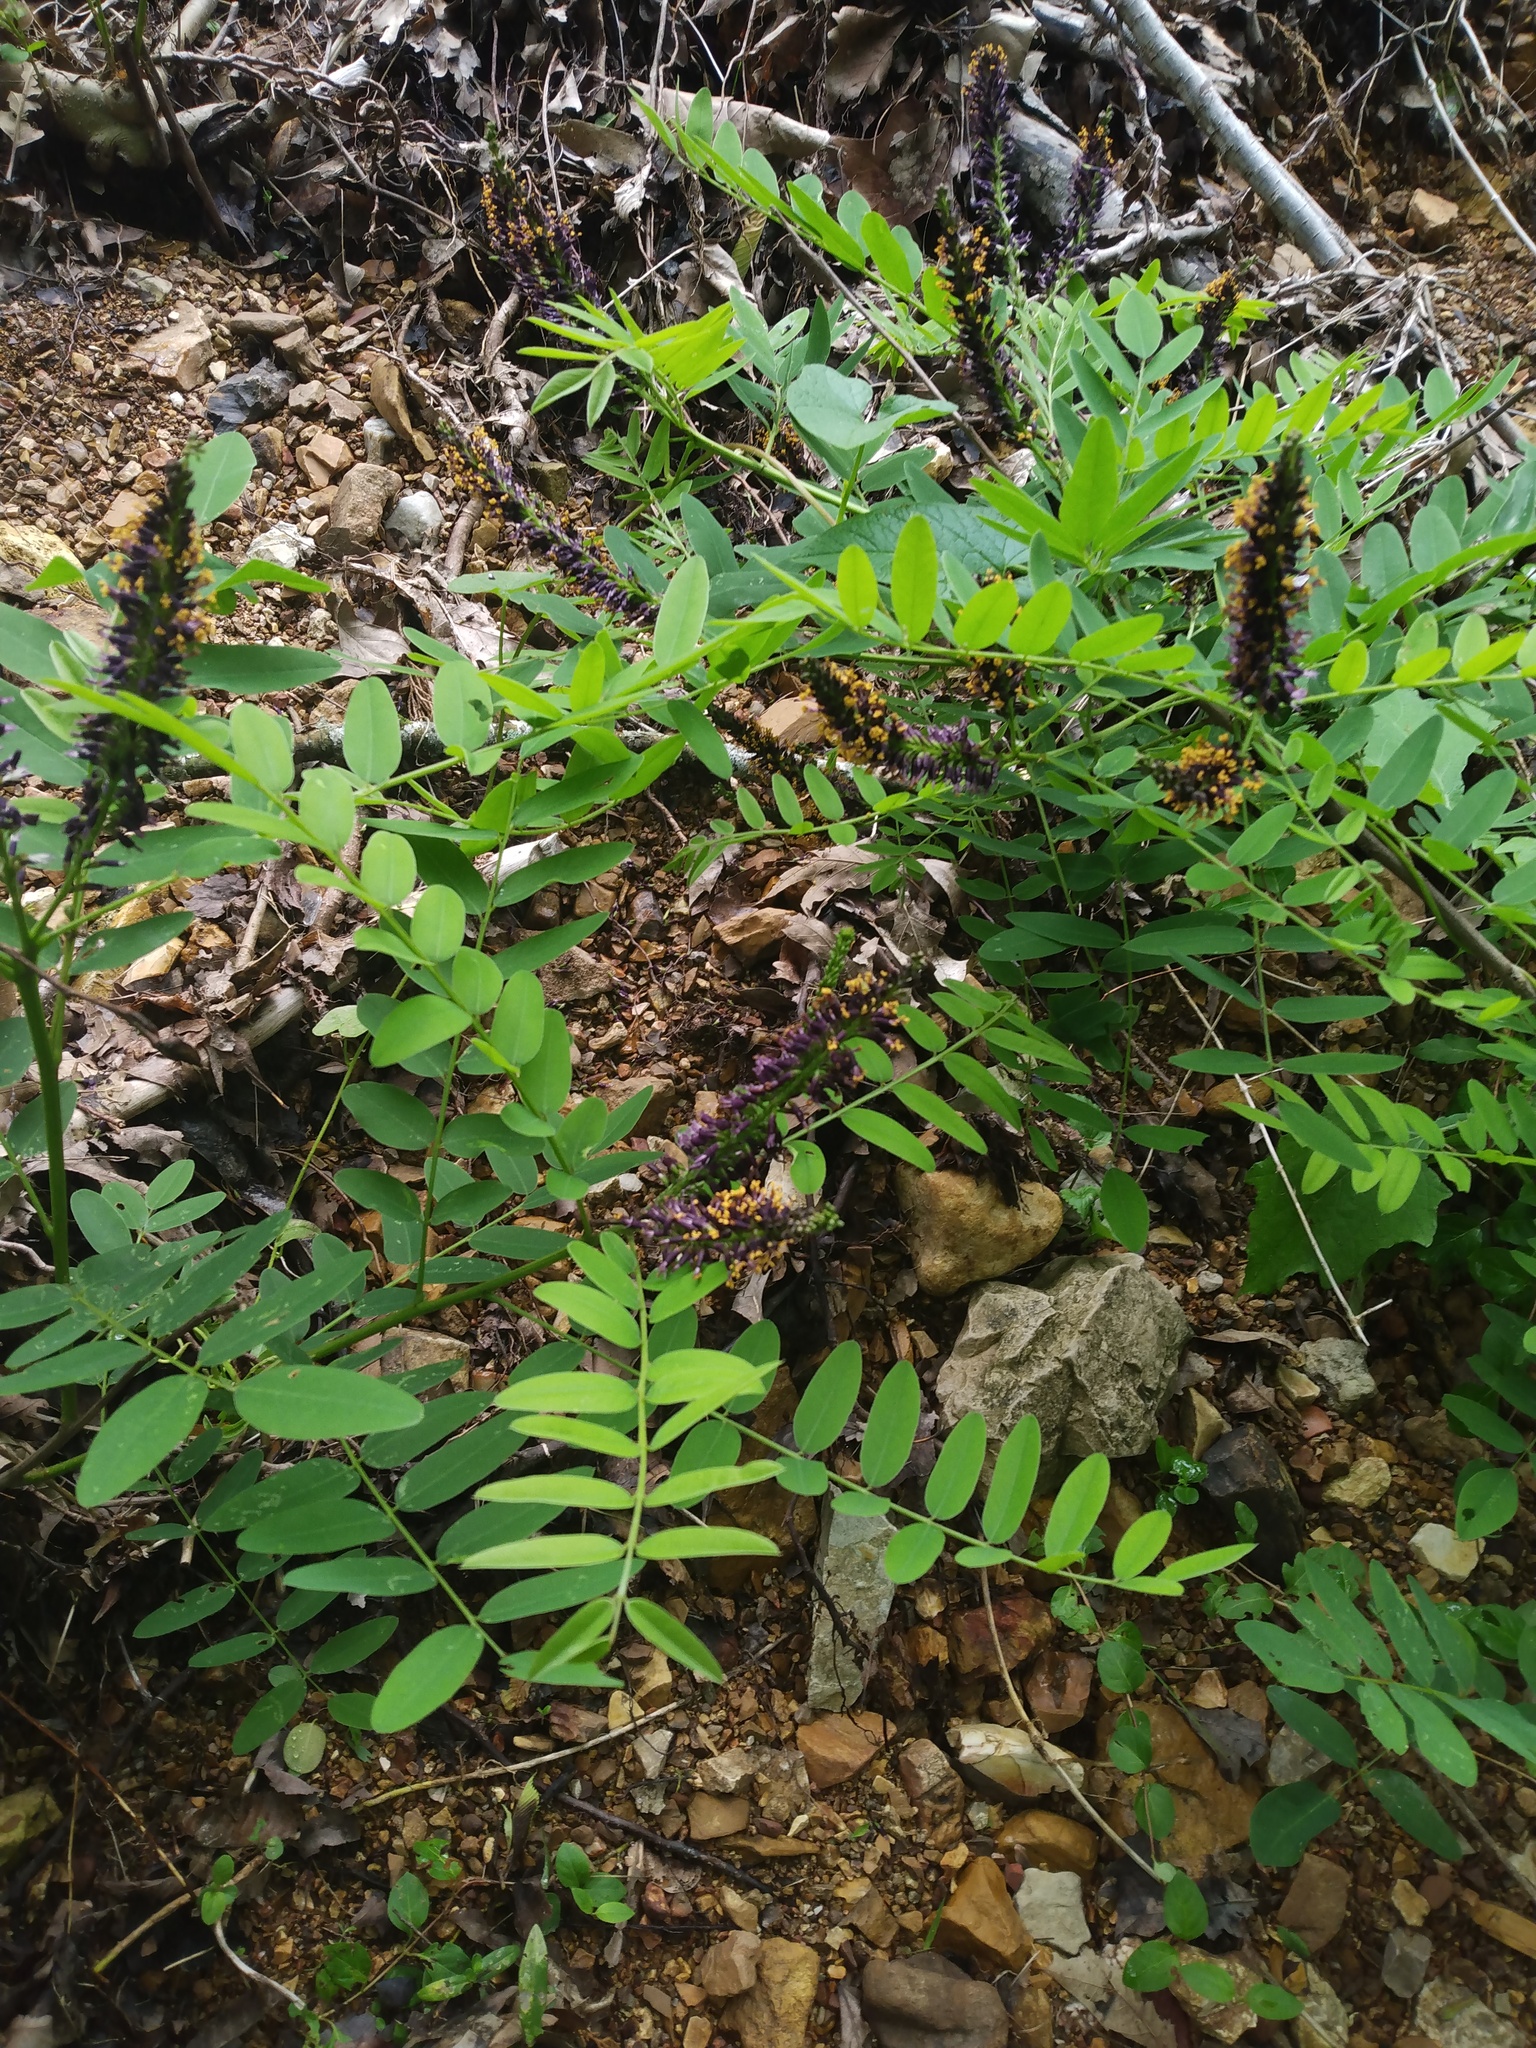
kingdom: Plantae
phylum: Tracheophyta
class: Magnoliopsida
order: Fabales
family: Fabaceae
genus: Amorpha
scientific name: Amorpha fruticosa
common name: False indigo
